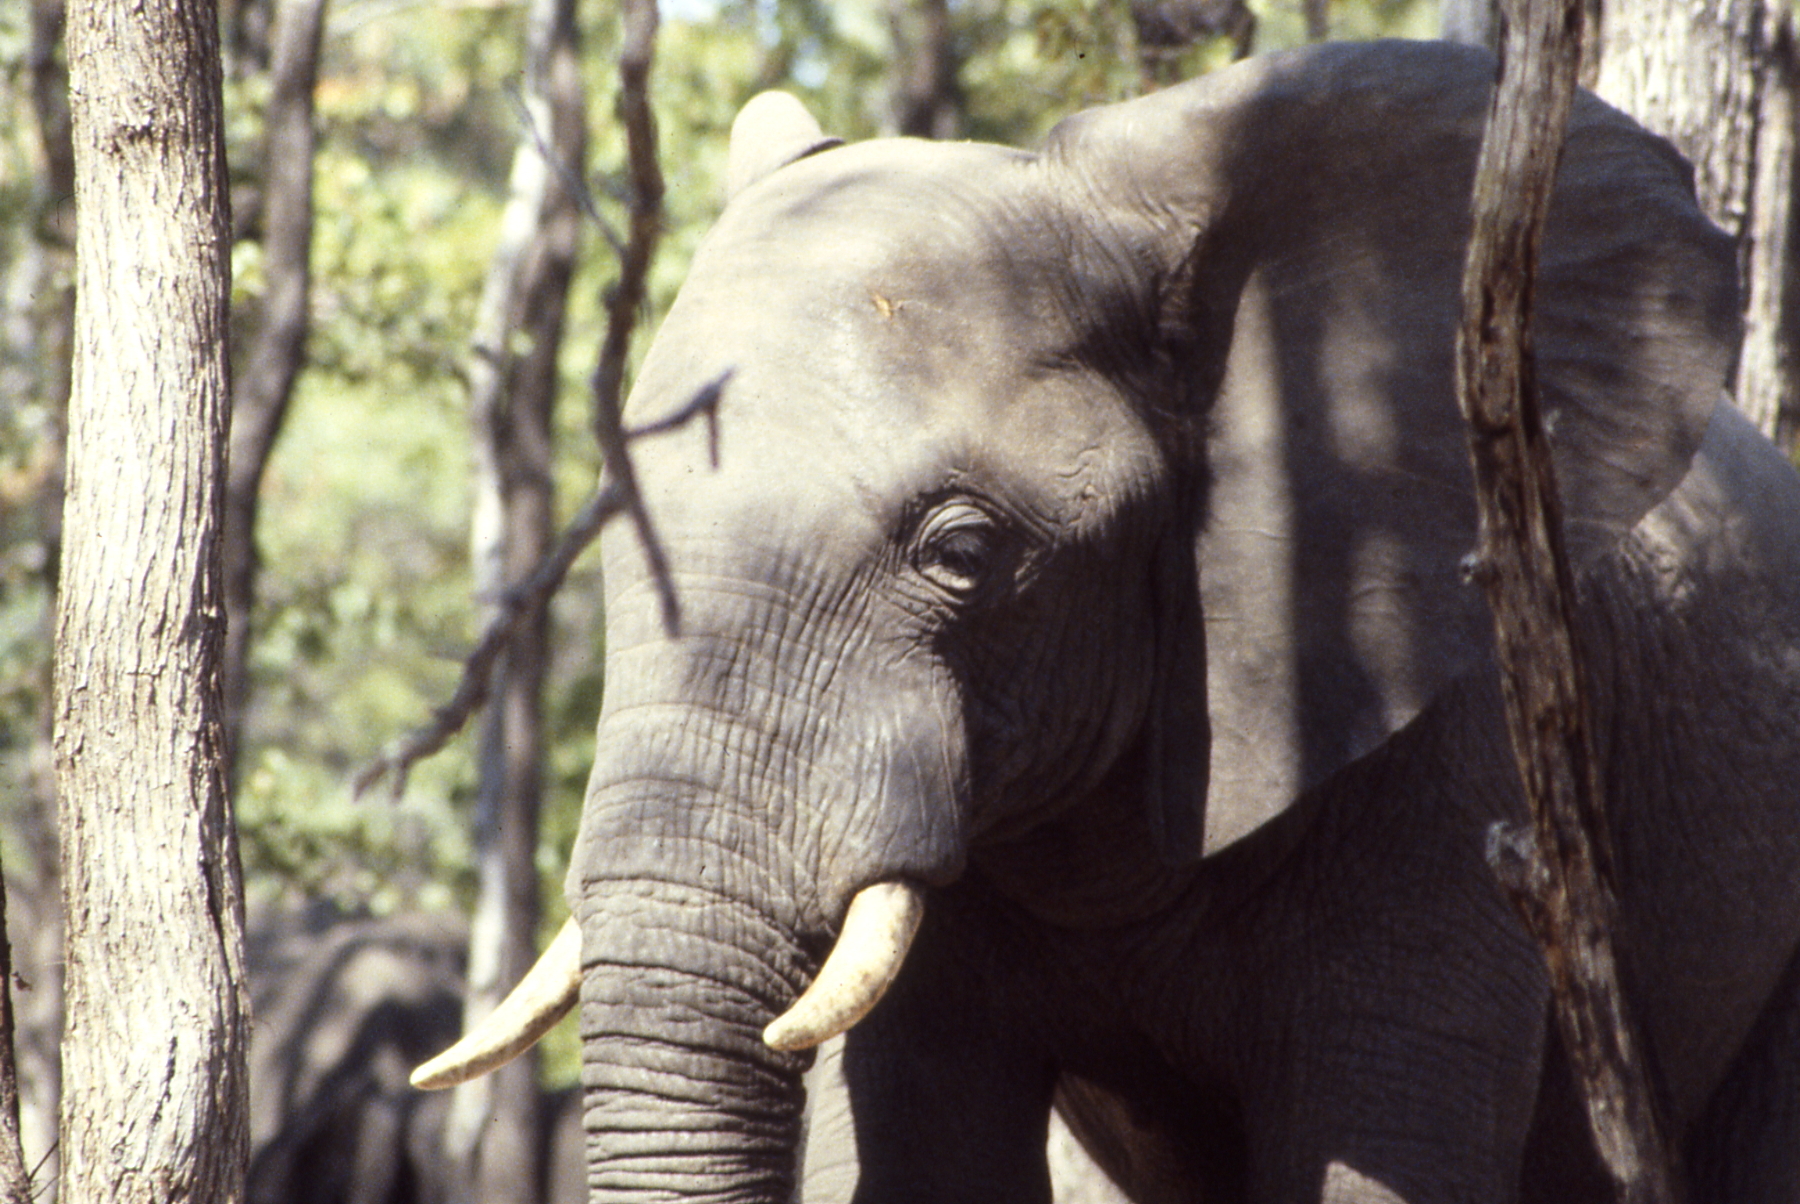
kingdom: Animalia
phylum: Chordata
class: Mammalia
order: Proboscidea
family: Elephantidae
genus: Loxodonta
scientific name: Loxodonta africana
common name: African elephant
